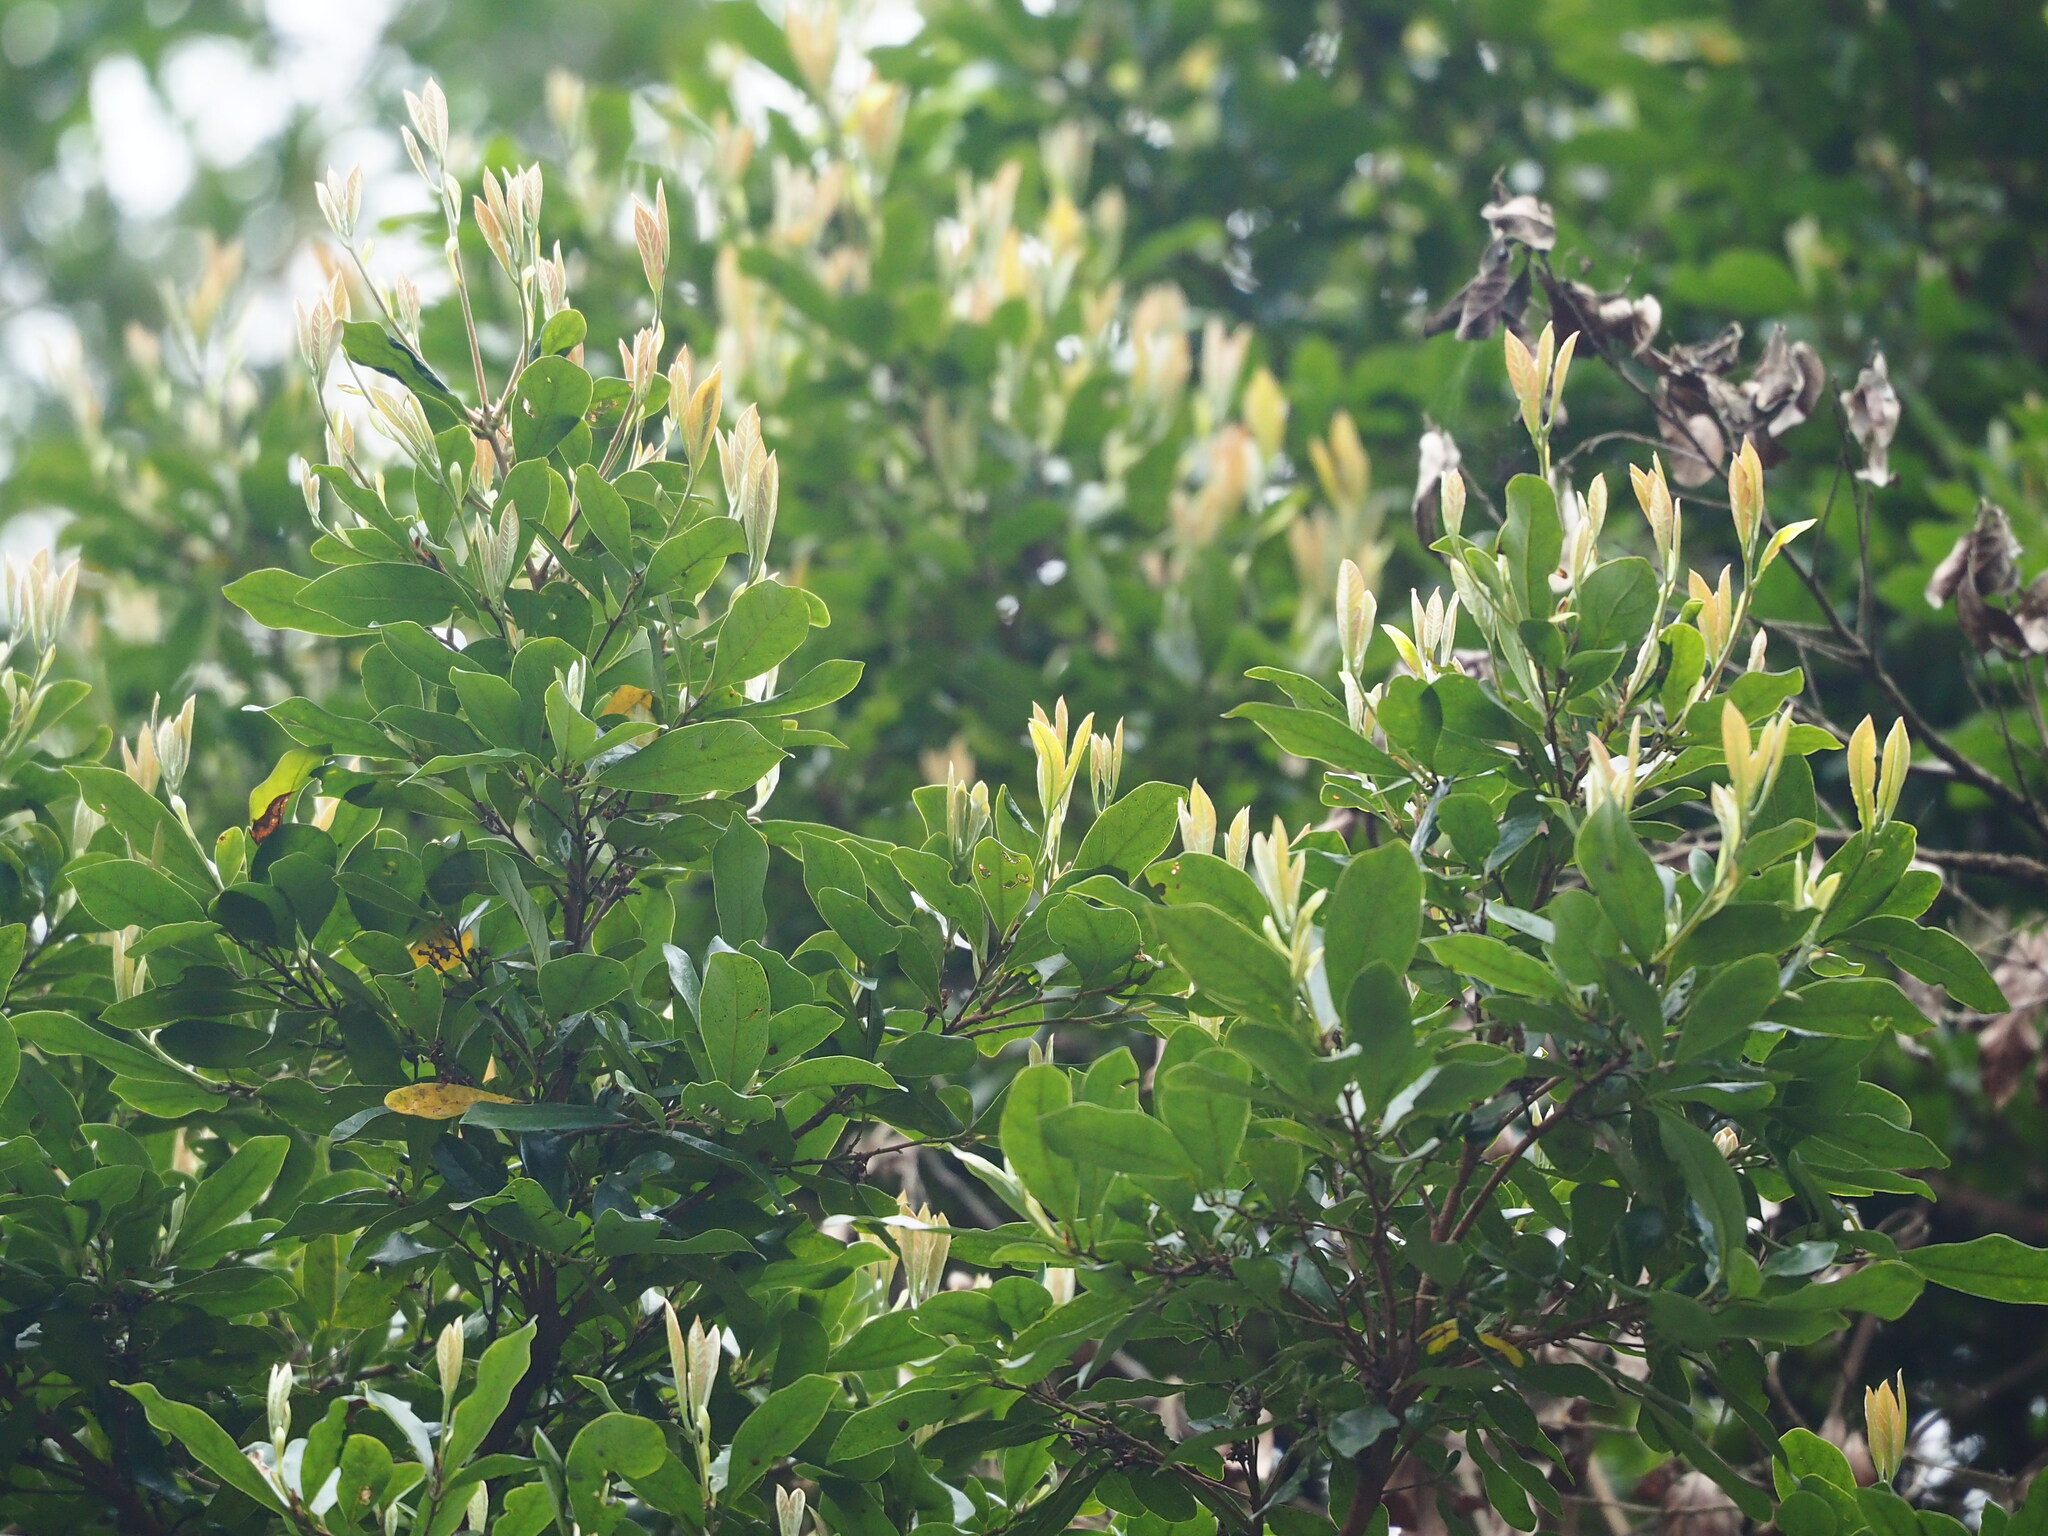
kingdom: Plantae
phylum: Tracheophyta
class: Magnoliopsida
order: Laurales
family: Lauraceae
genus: Litsea
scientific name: Litsea hypophaea
